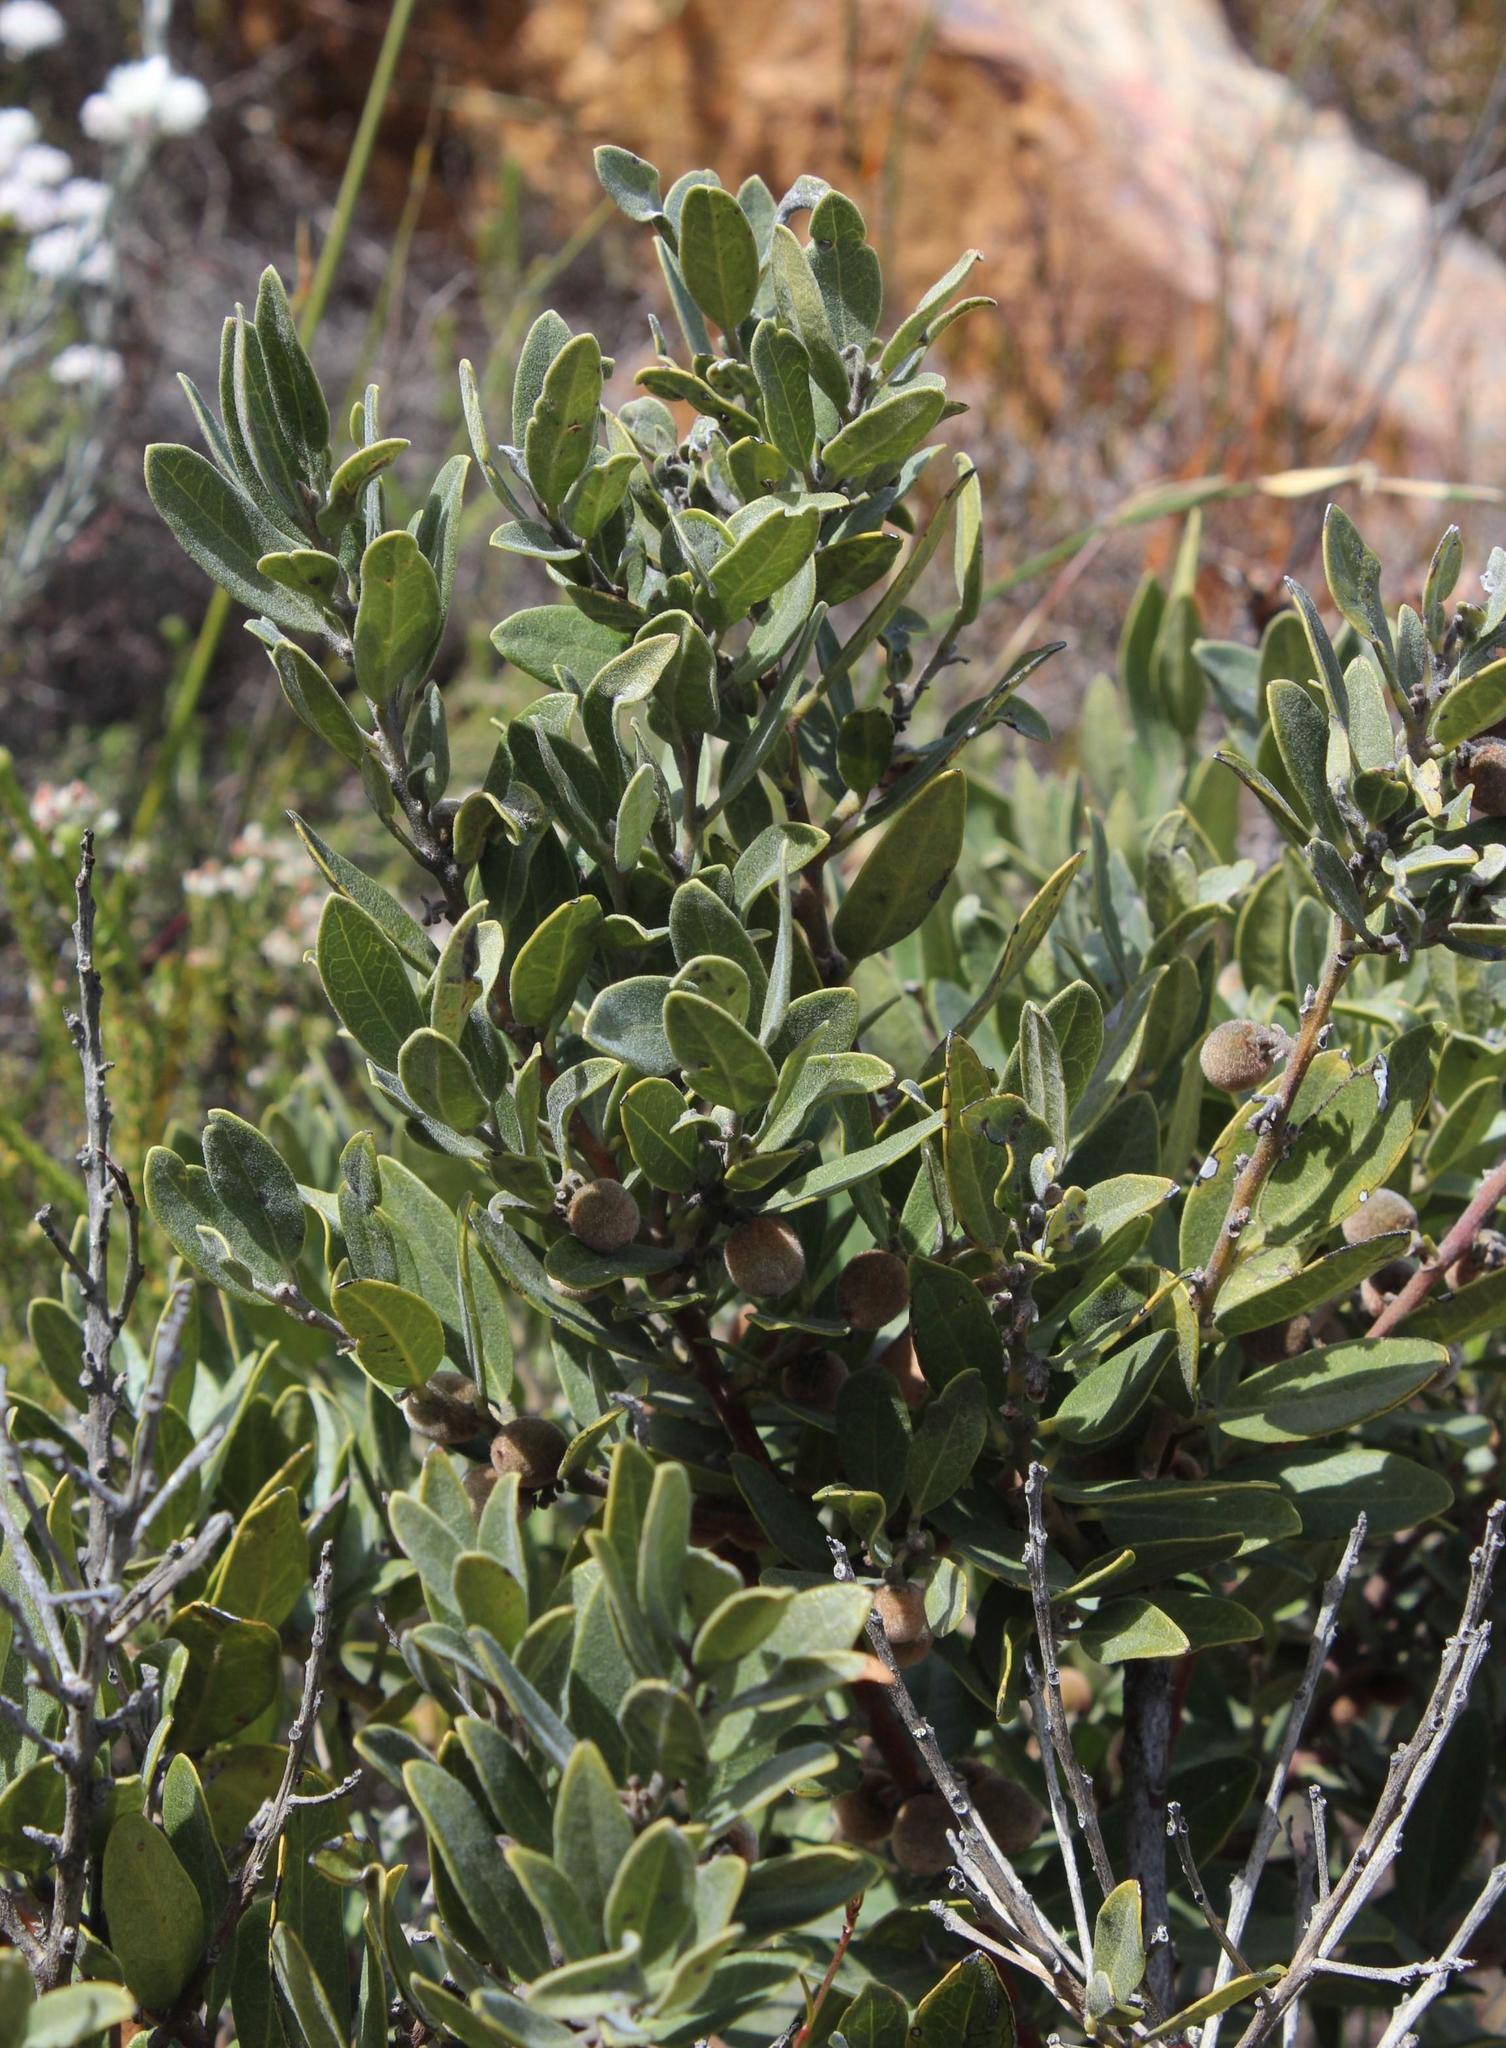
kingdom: Plantae
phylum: Tracheophyta
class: Magnoliopsida
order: Ericales
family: Ebenaceae
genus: Euclea
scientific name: Euclea polyandra
